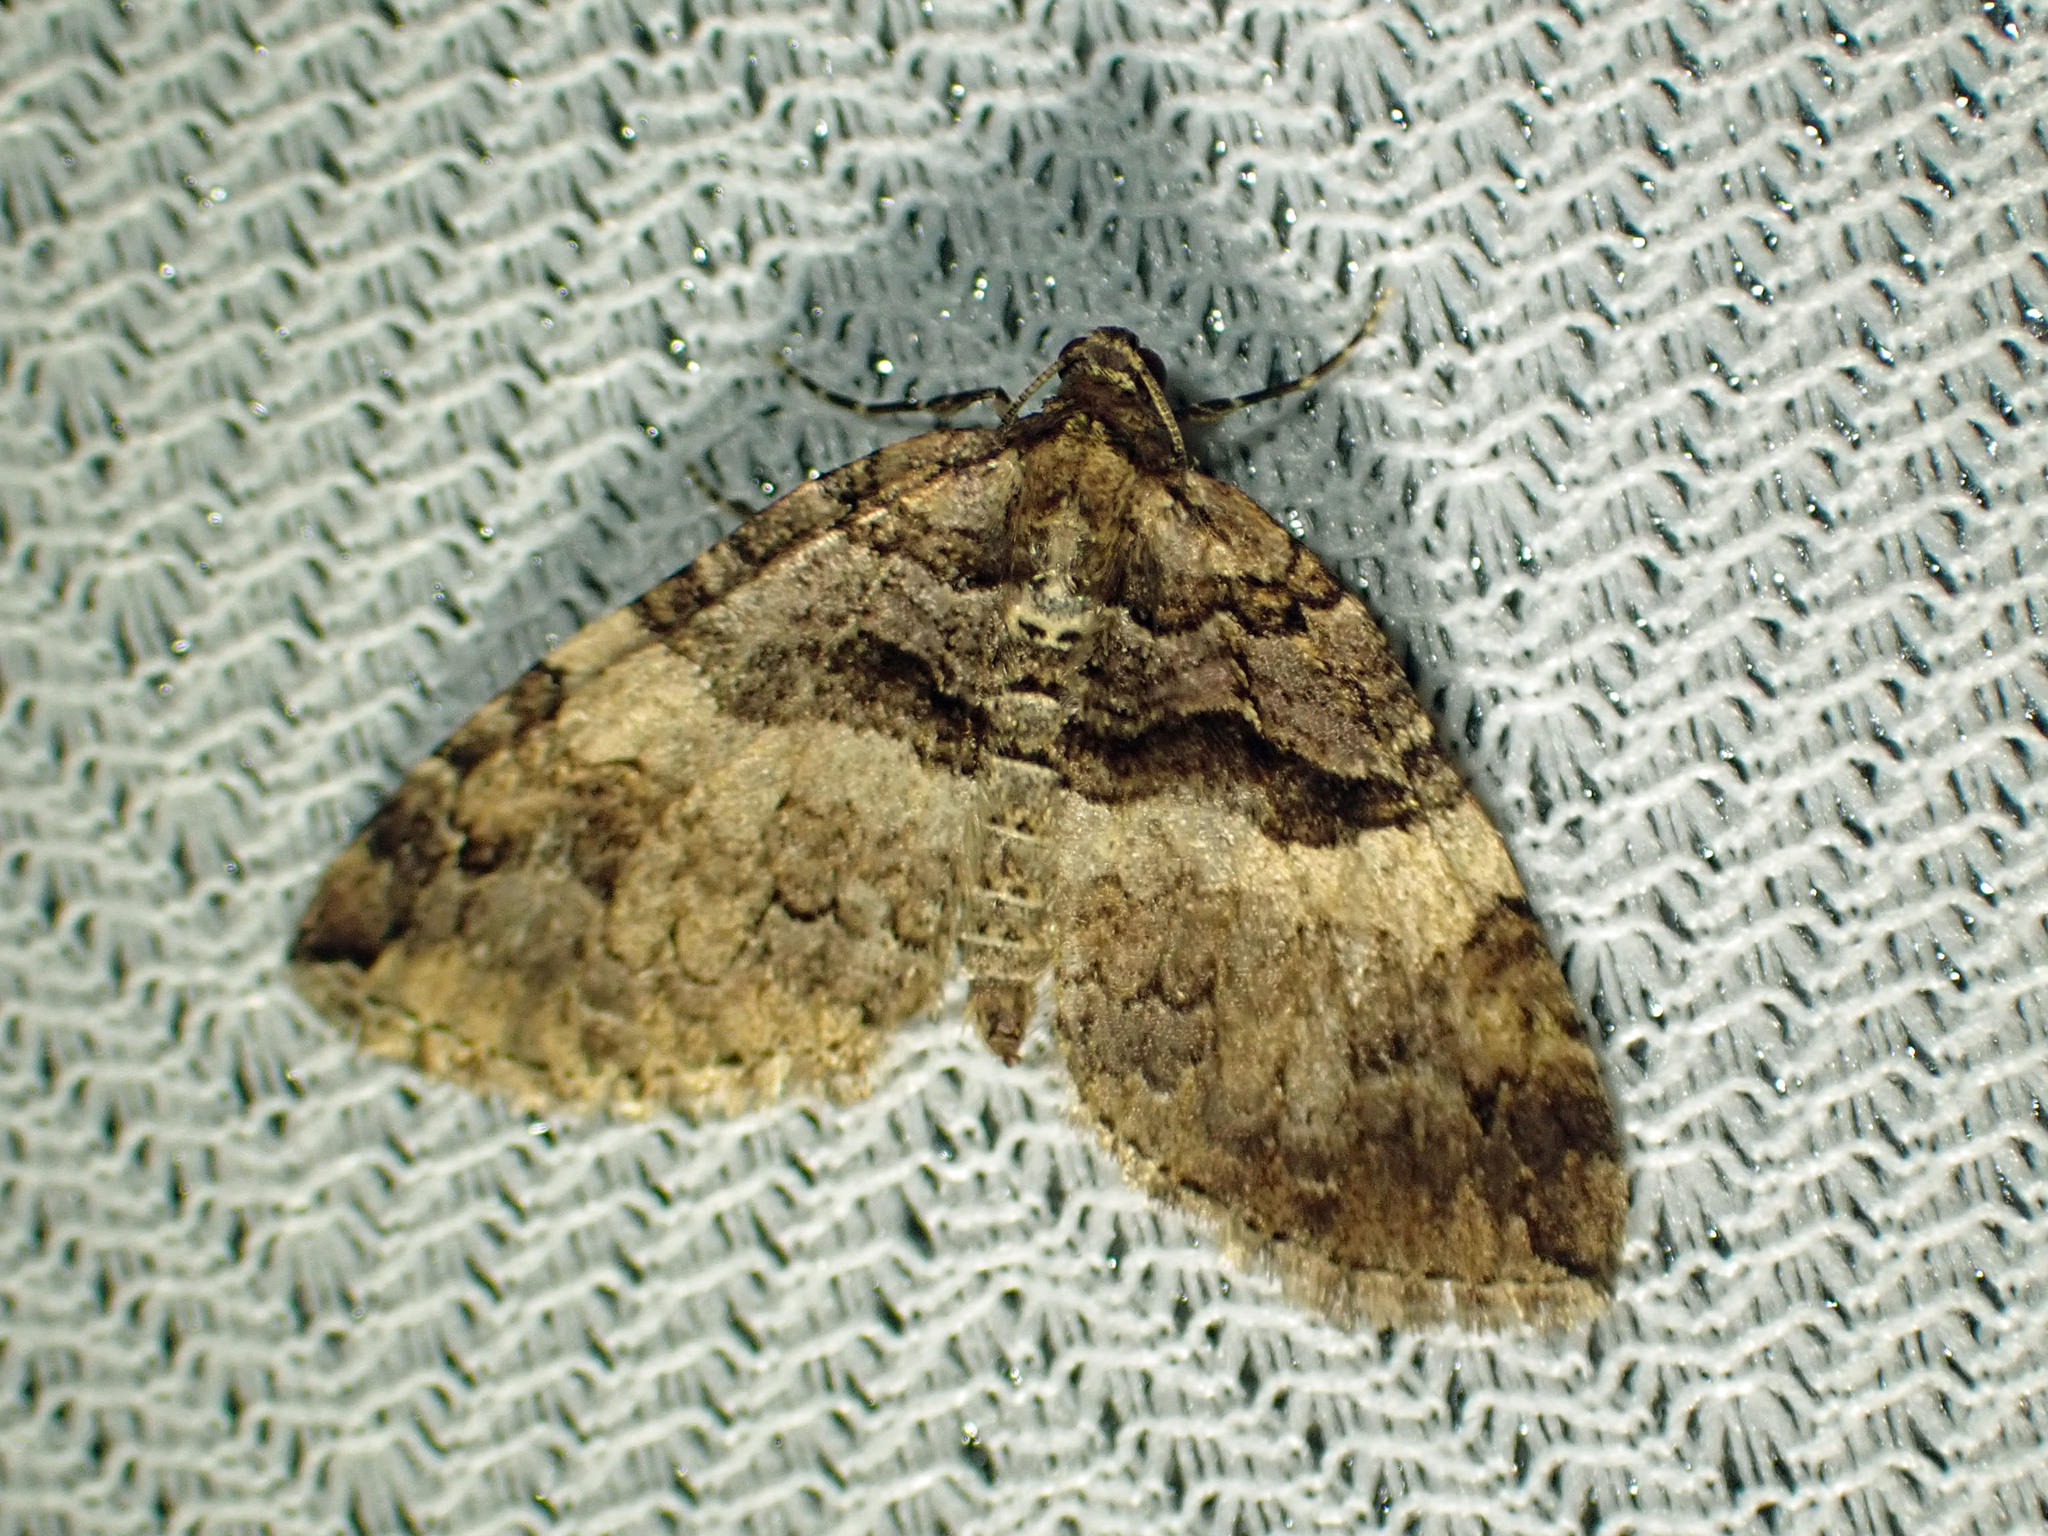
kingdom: Animalia
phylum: Arthropoda
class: Insecta
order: Lepidoptera
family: Geometridae
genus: Anticlea
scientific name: Anticlea vasiliata
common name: Variable carpet
